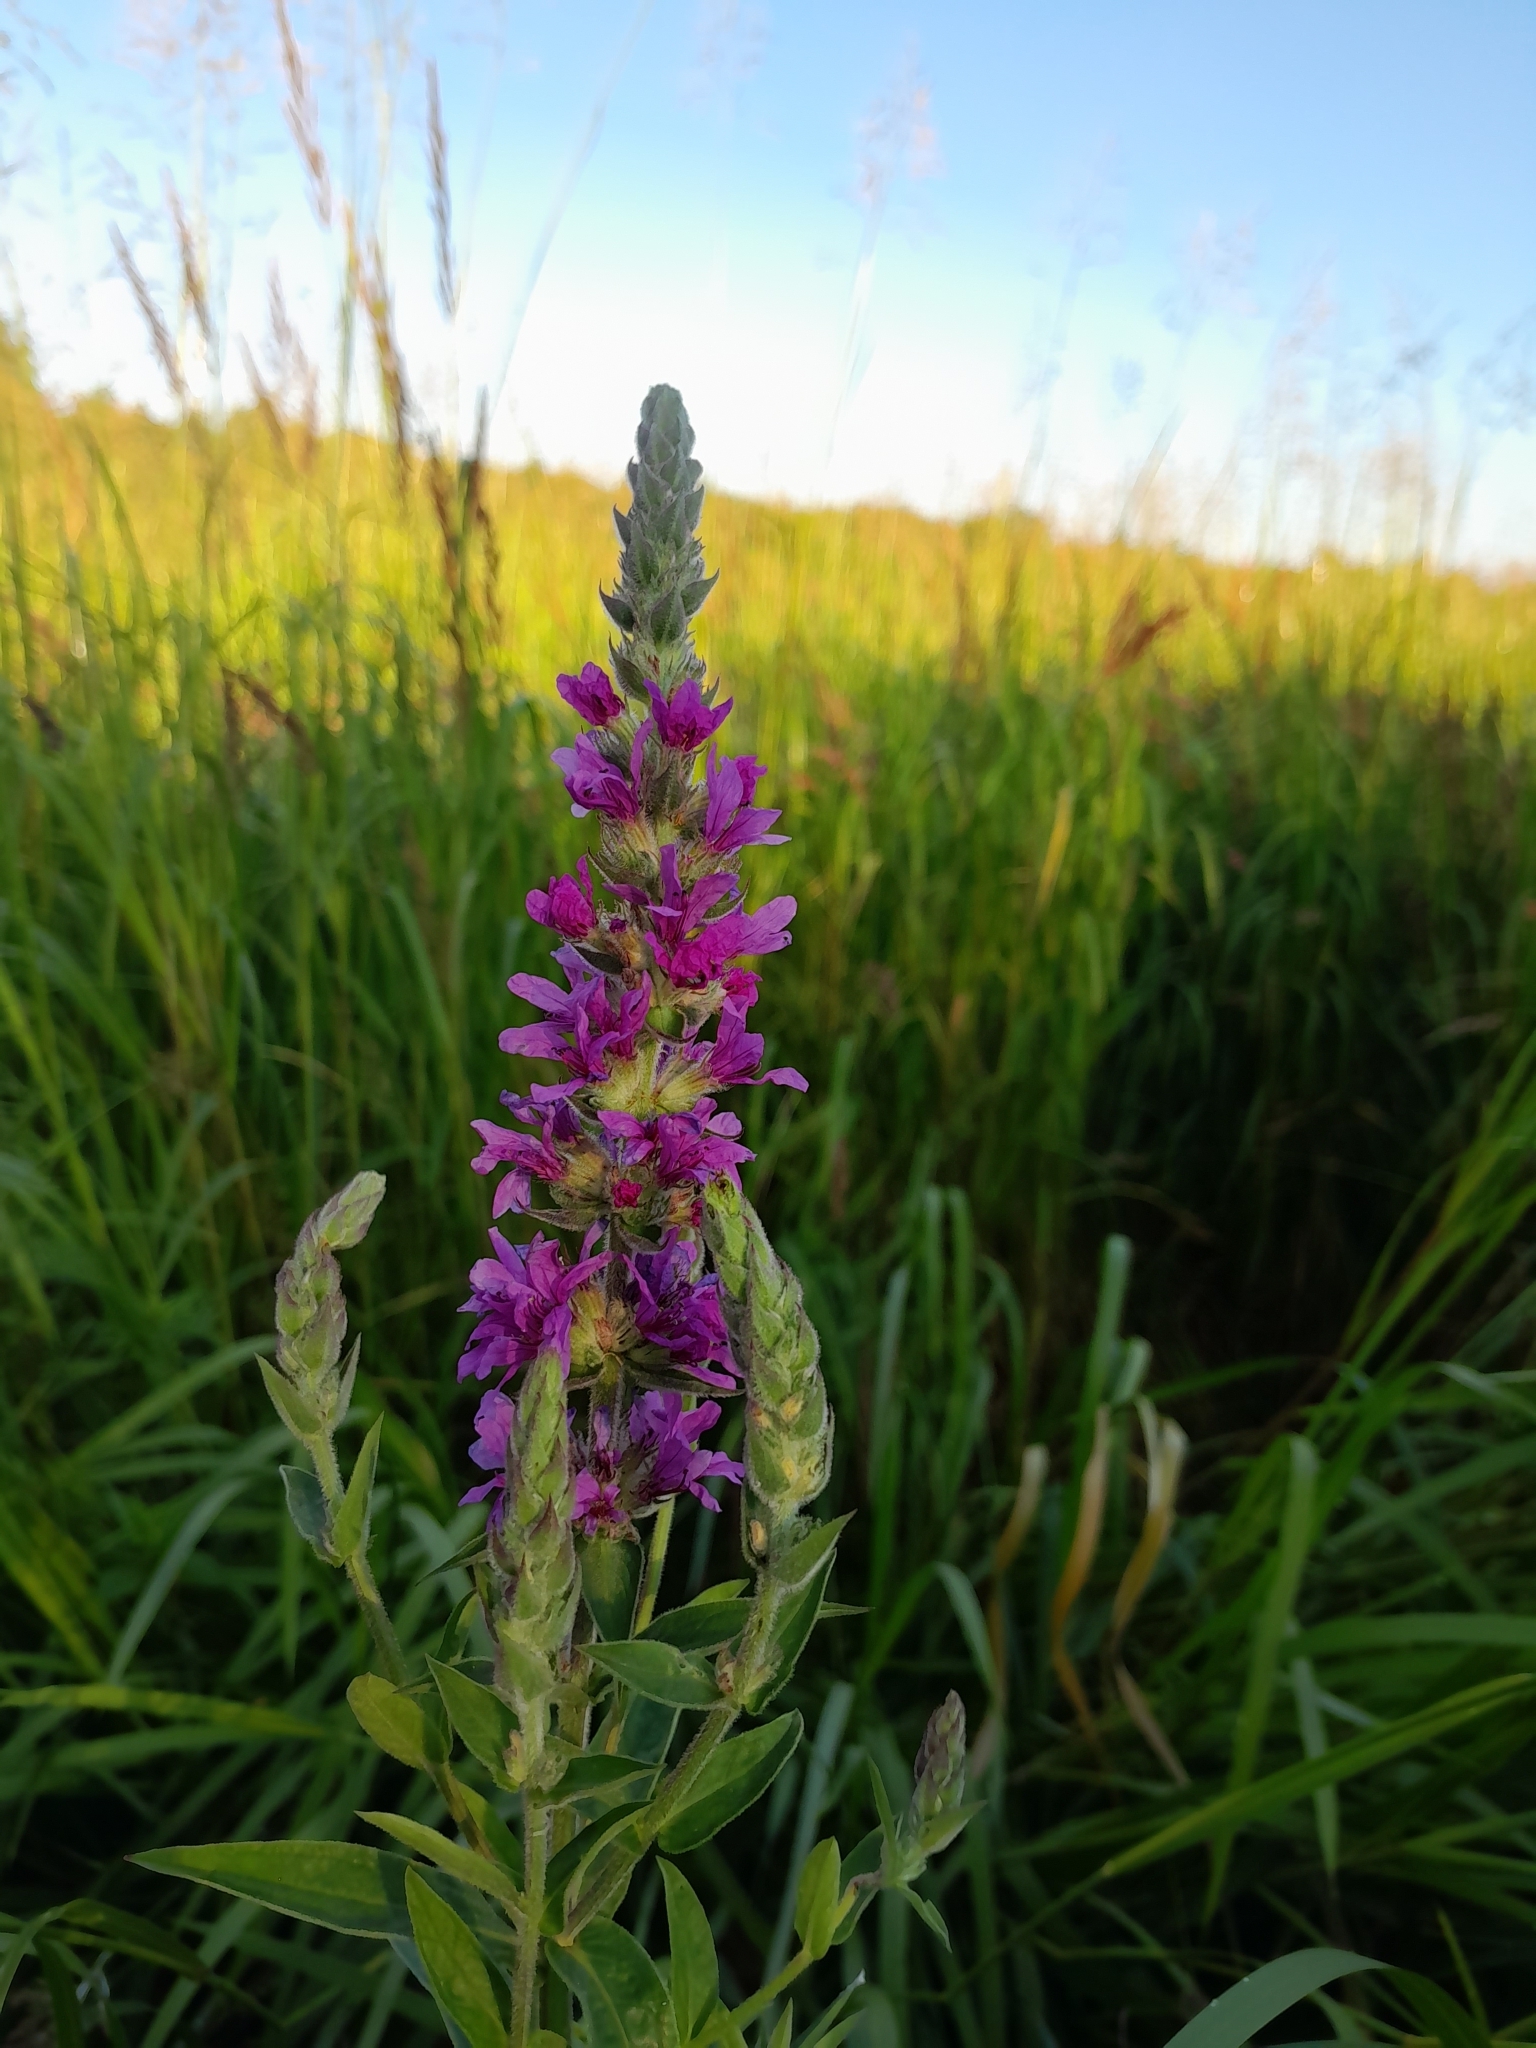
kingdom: Plantae
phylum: Tracheophyta
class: Magnoliopsida
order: Myrtales
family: Lythraceae
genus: Lythrum
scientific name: Lythrum salicaria
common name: Purple loosestrife
